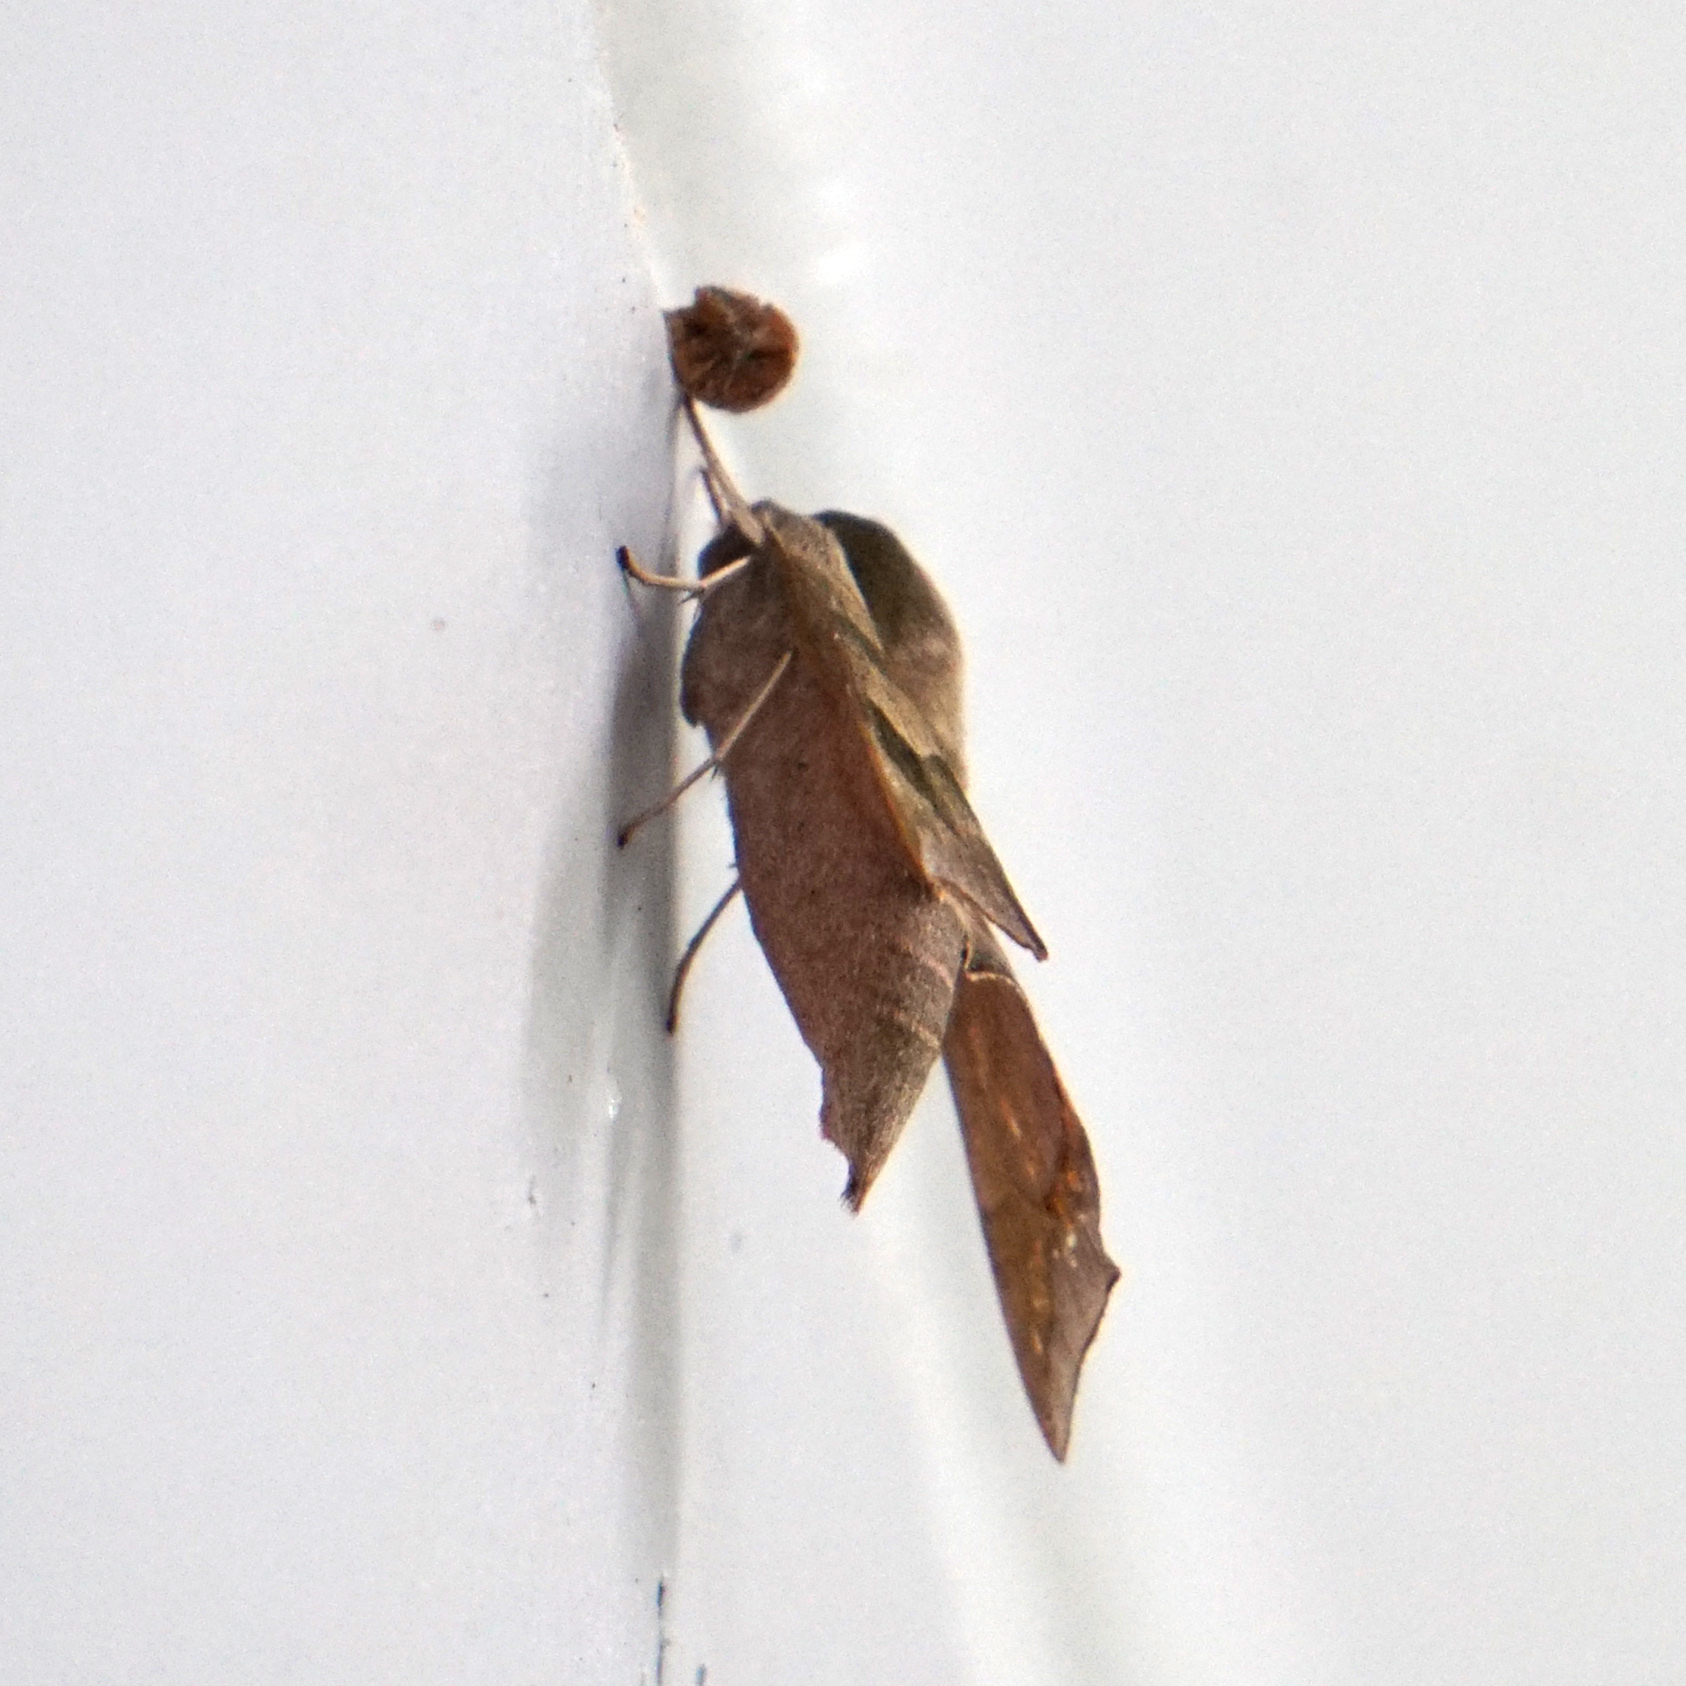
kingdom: Animalia
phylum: Arthropoda
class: Insecta
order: Lepidoptera
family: Sphingidae
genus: Darapsa
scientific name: Darapsa myron
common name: Hog sphinx
